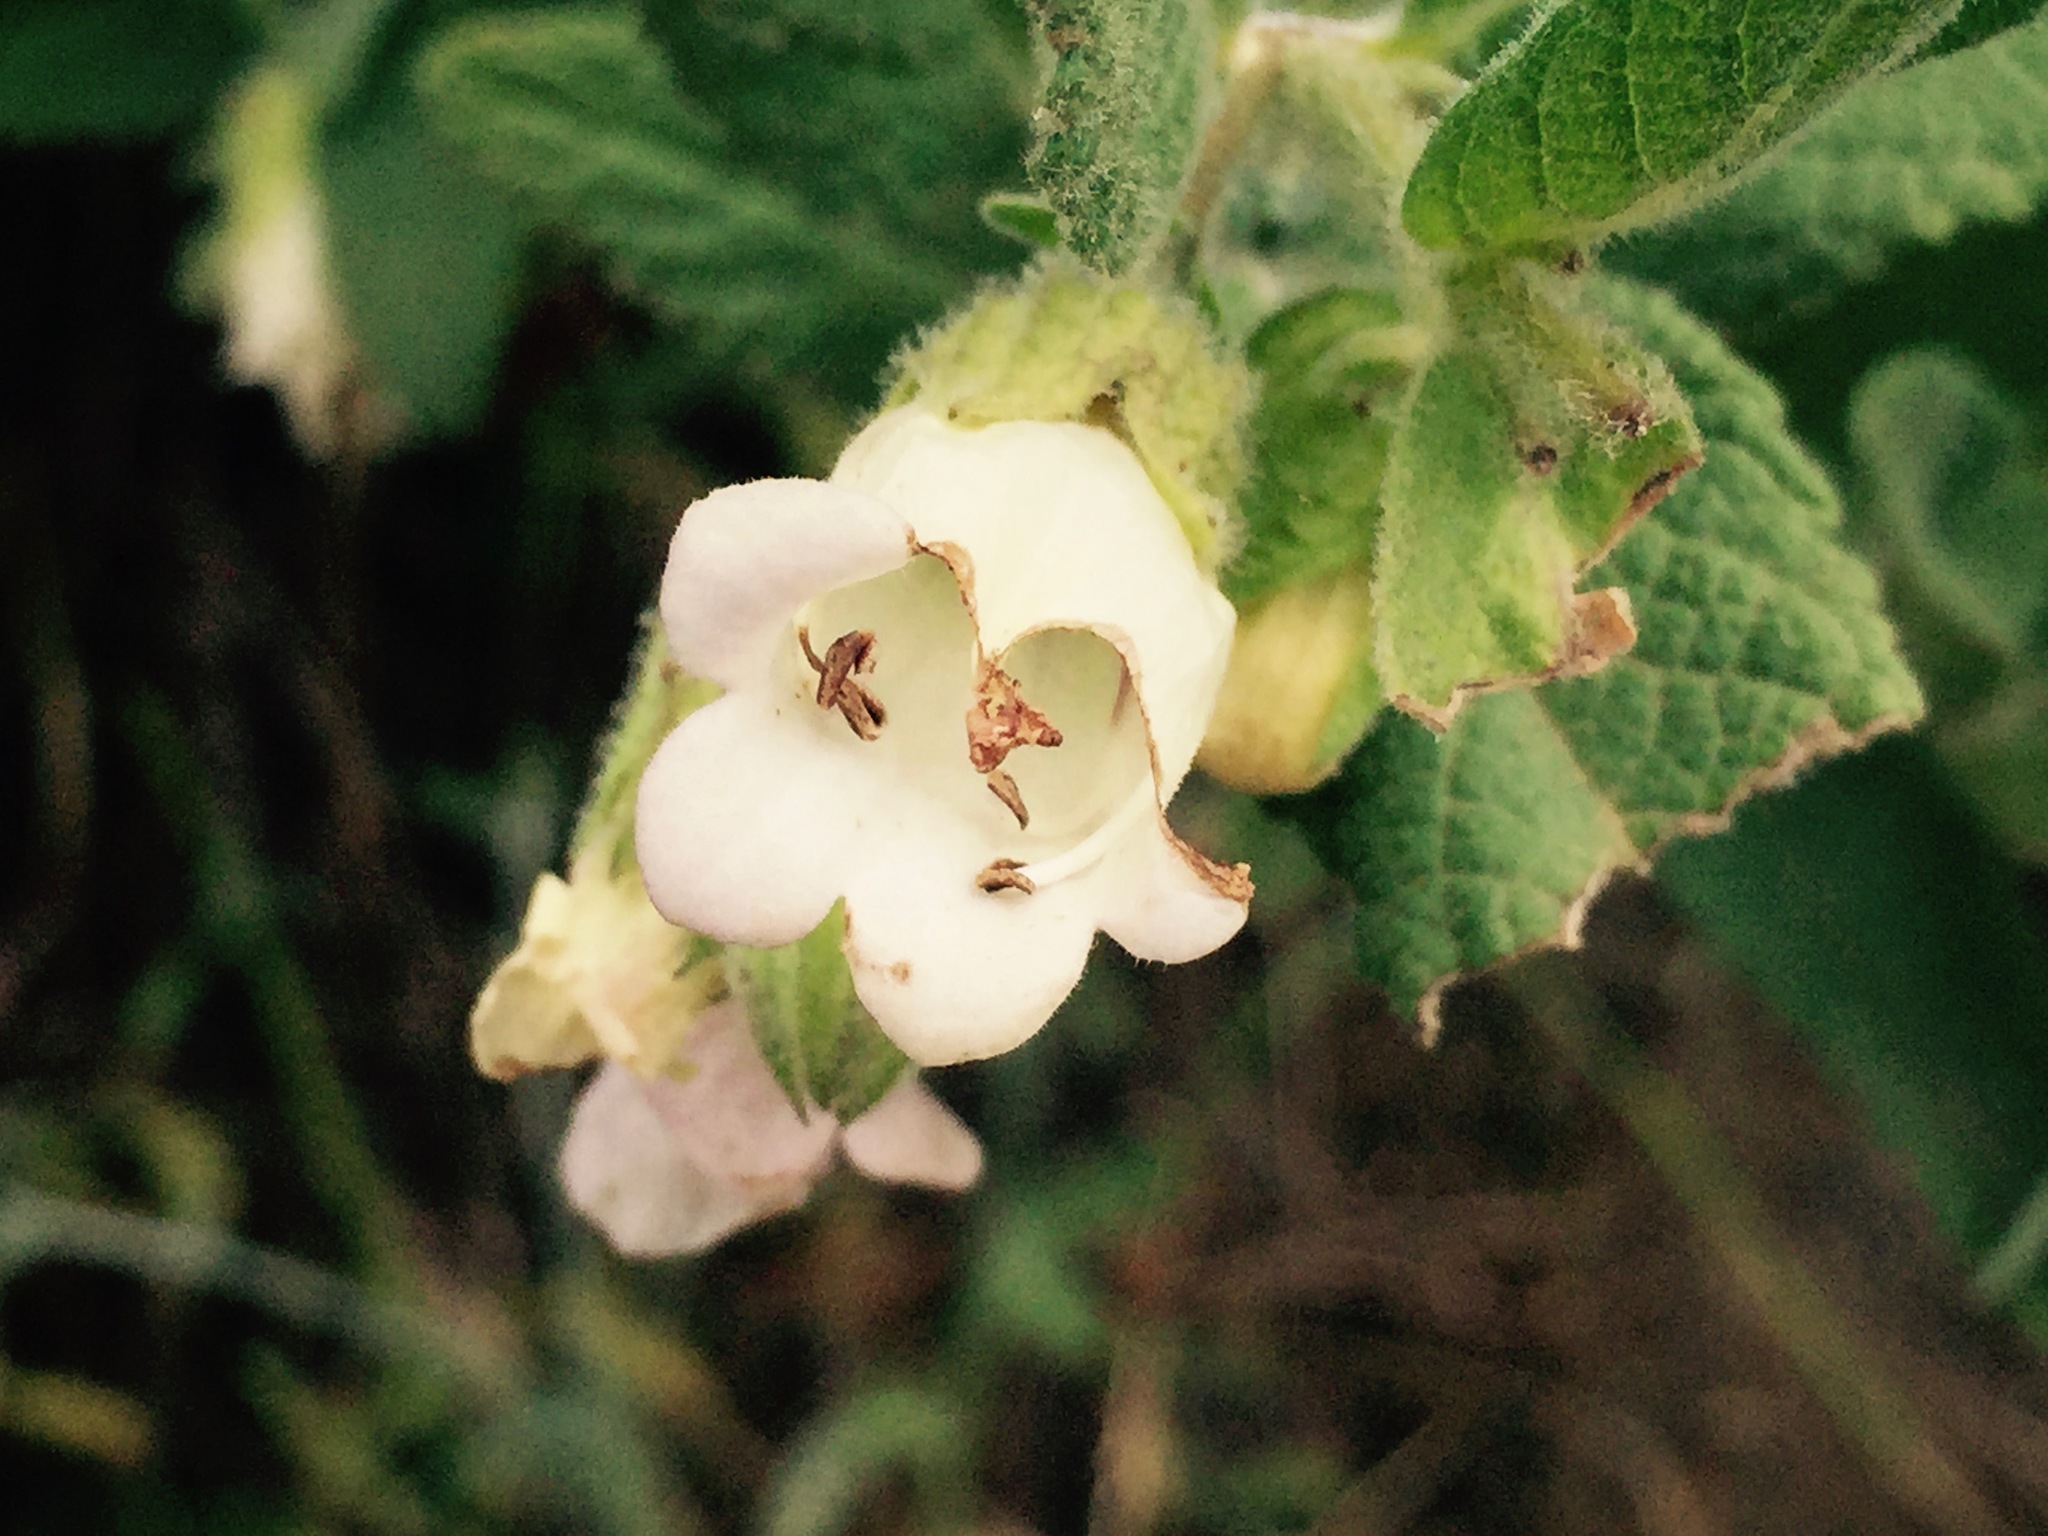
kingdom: Plantae
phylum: Tracheophyta
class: Magnoliopsida
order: Lamiales
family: Lamiaceae
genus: Lepechinia
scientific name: Lepechinia calycina
